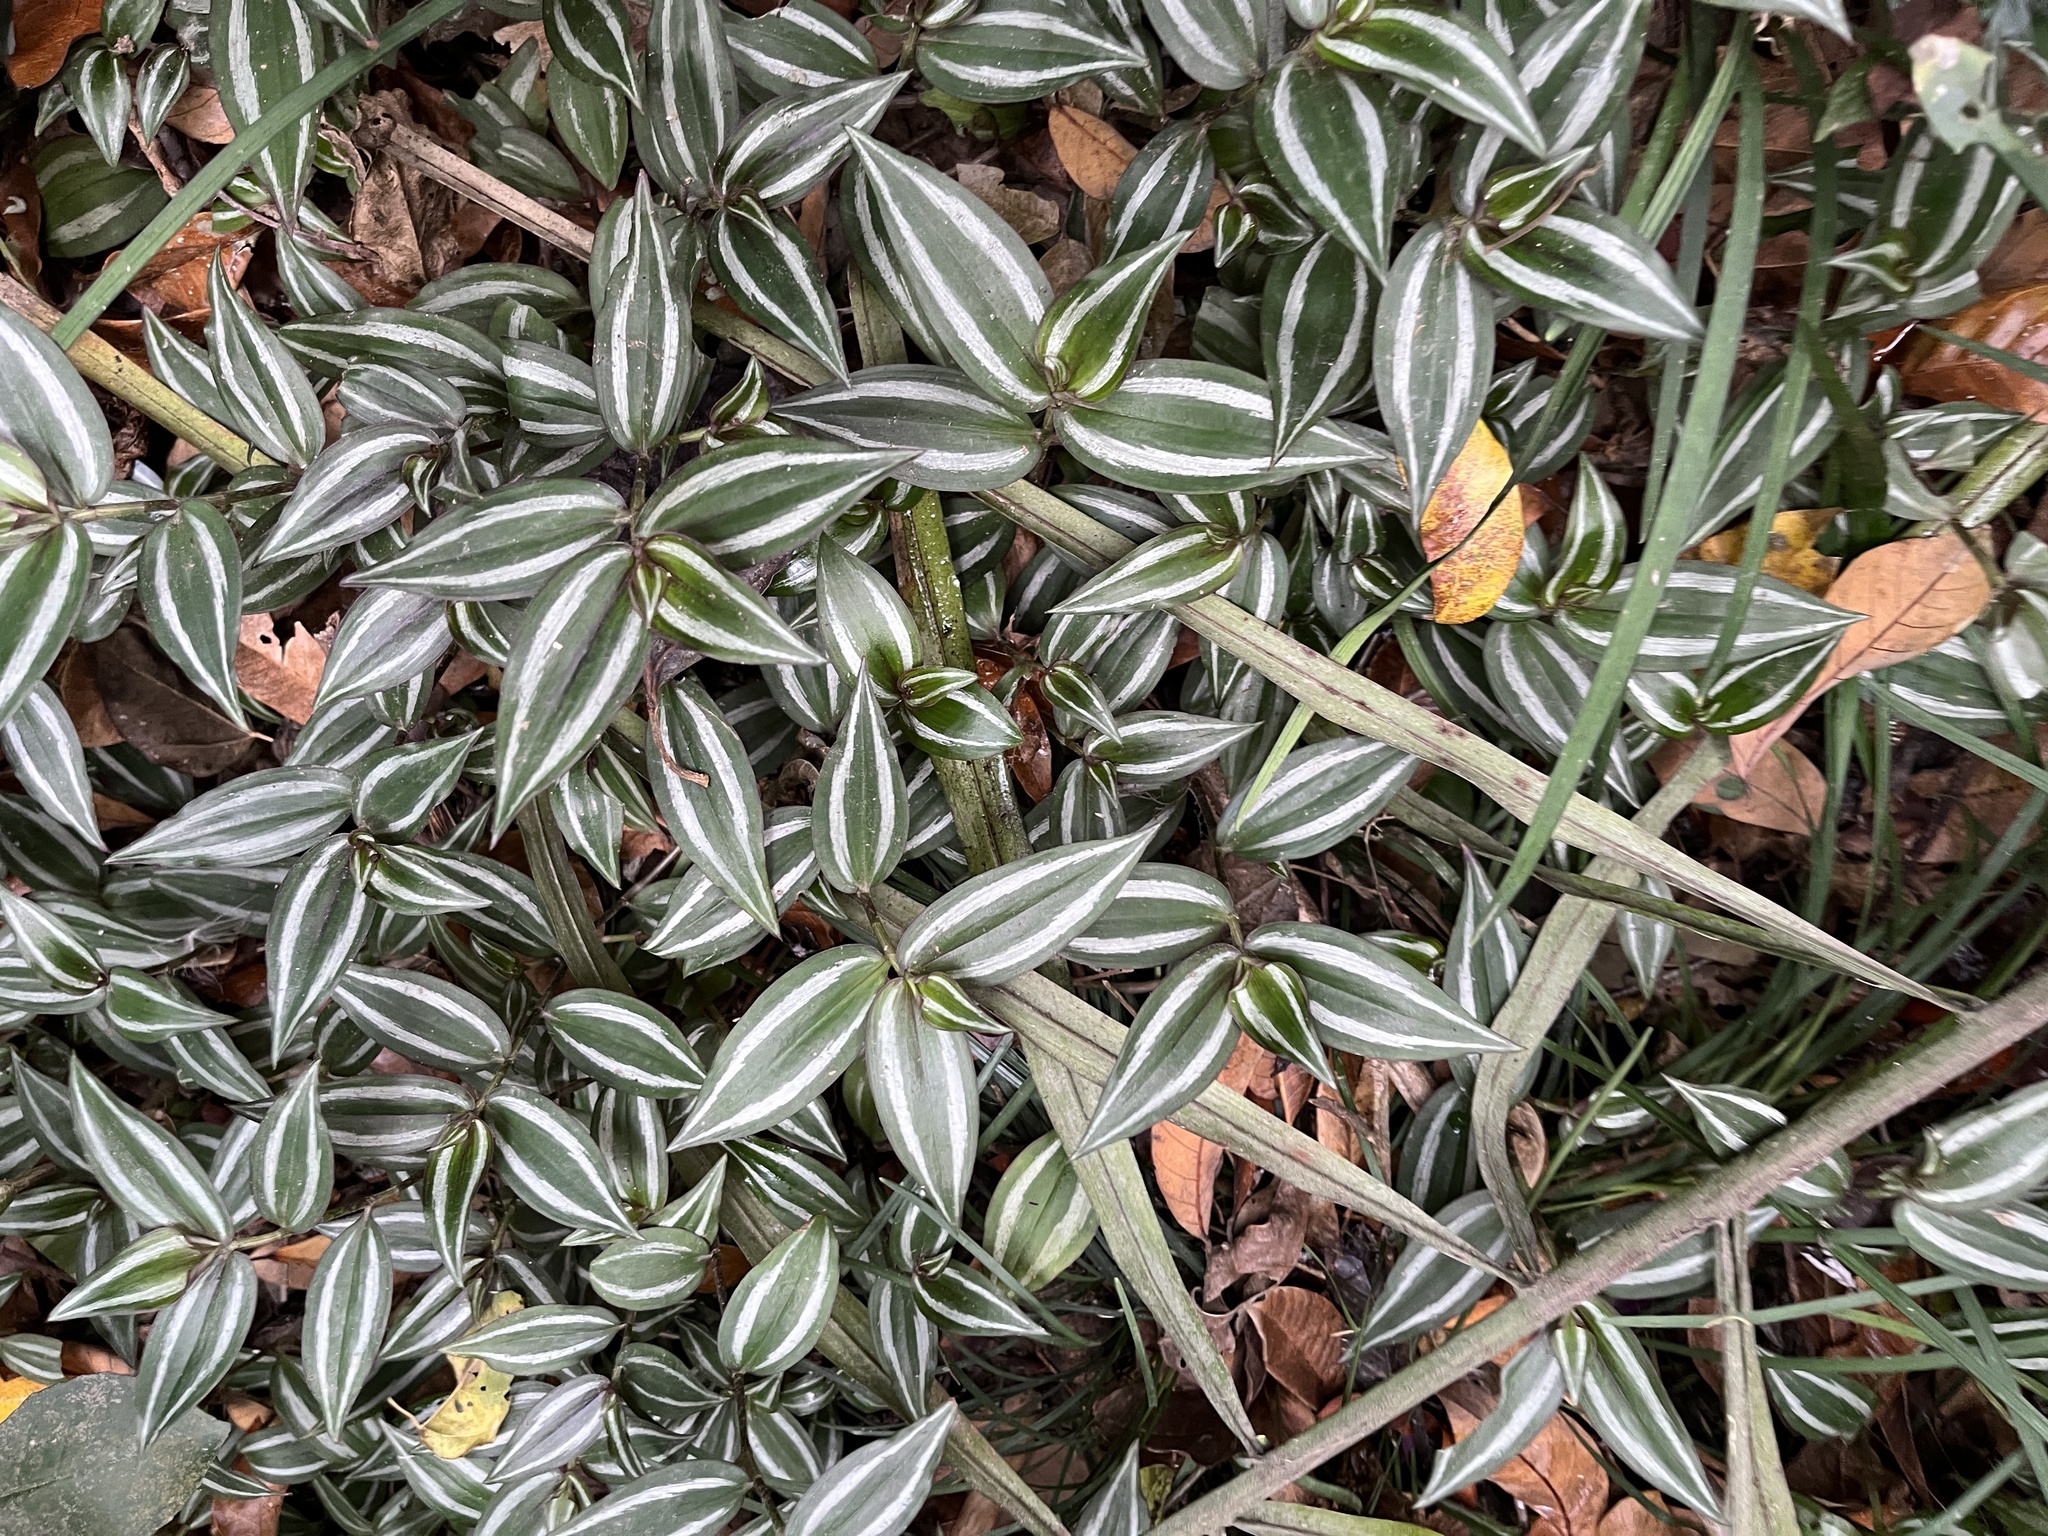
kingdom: Plantae
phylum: Tracheophyta
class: Liliopsida
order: Commelinales
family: Commelinaceae
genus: Tradescantia
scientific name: Tradescantia zebrina
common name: Inchplant
